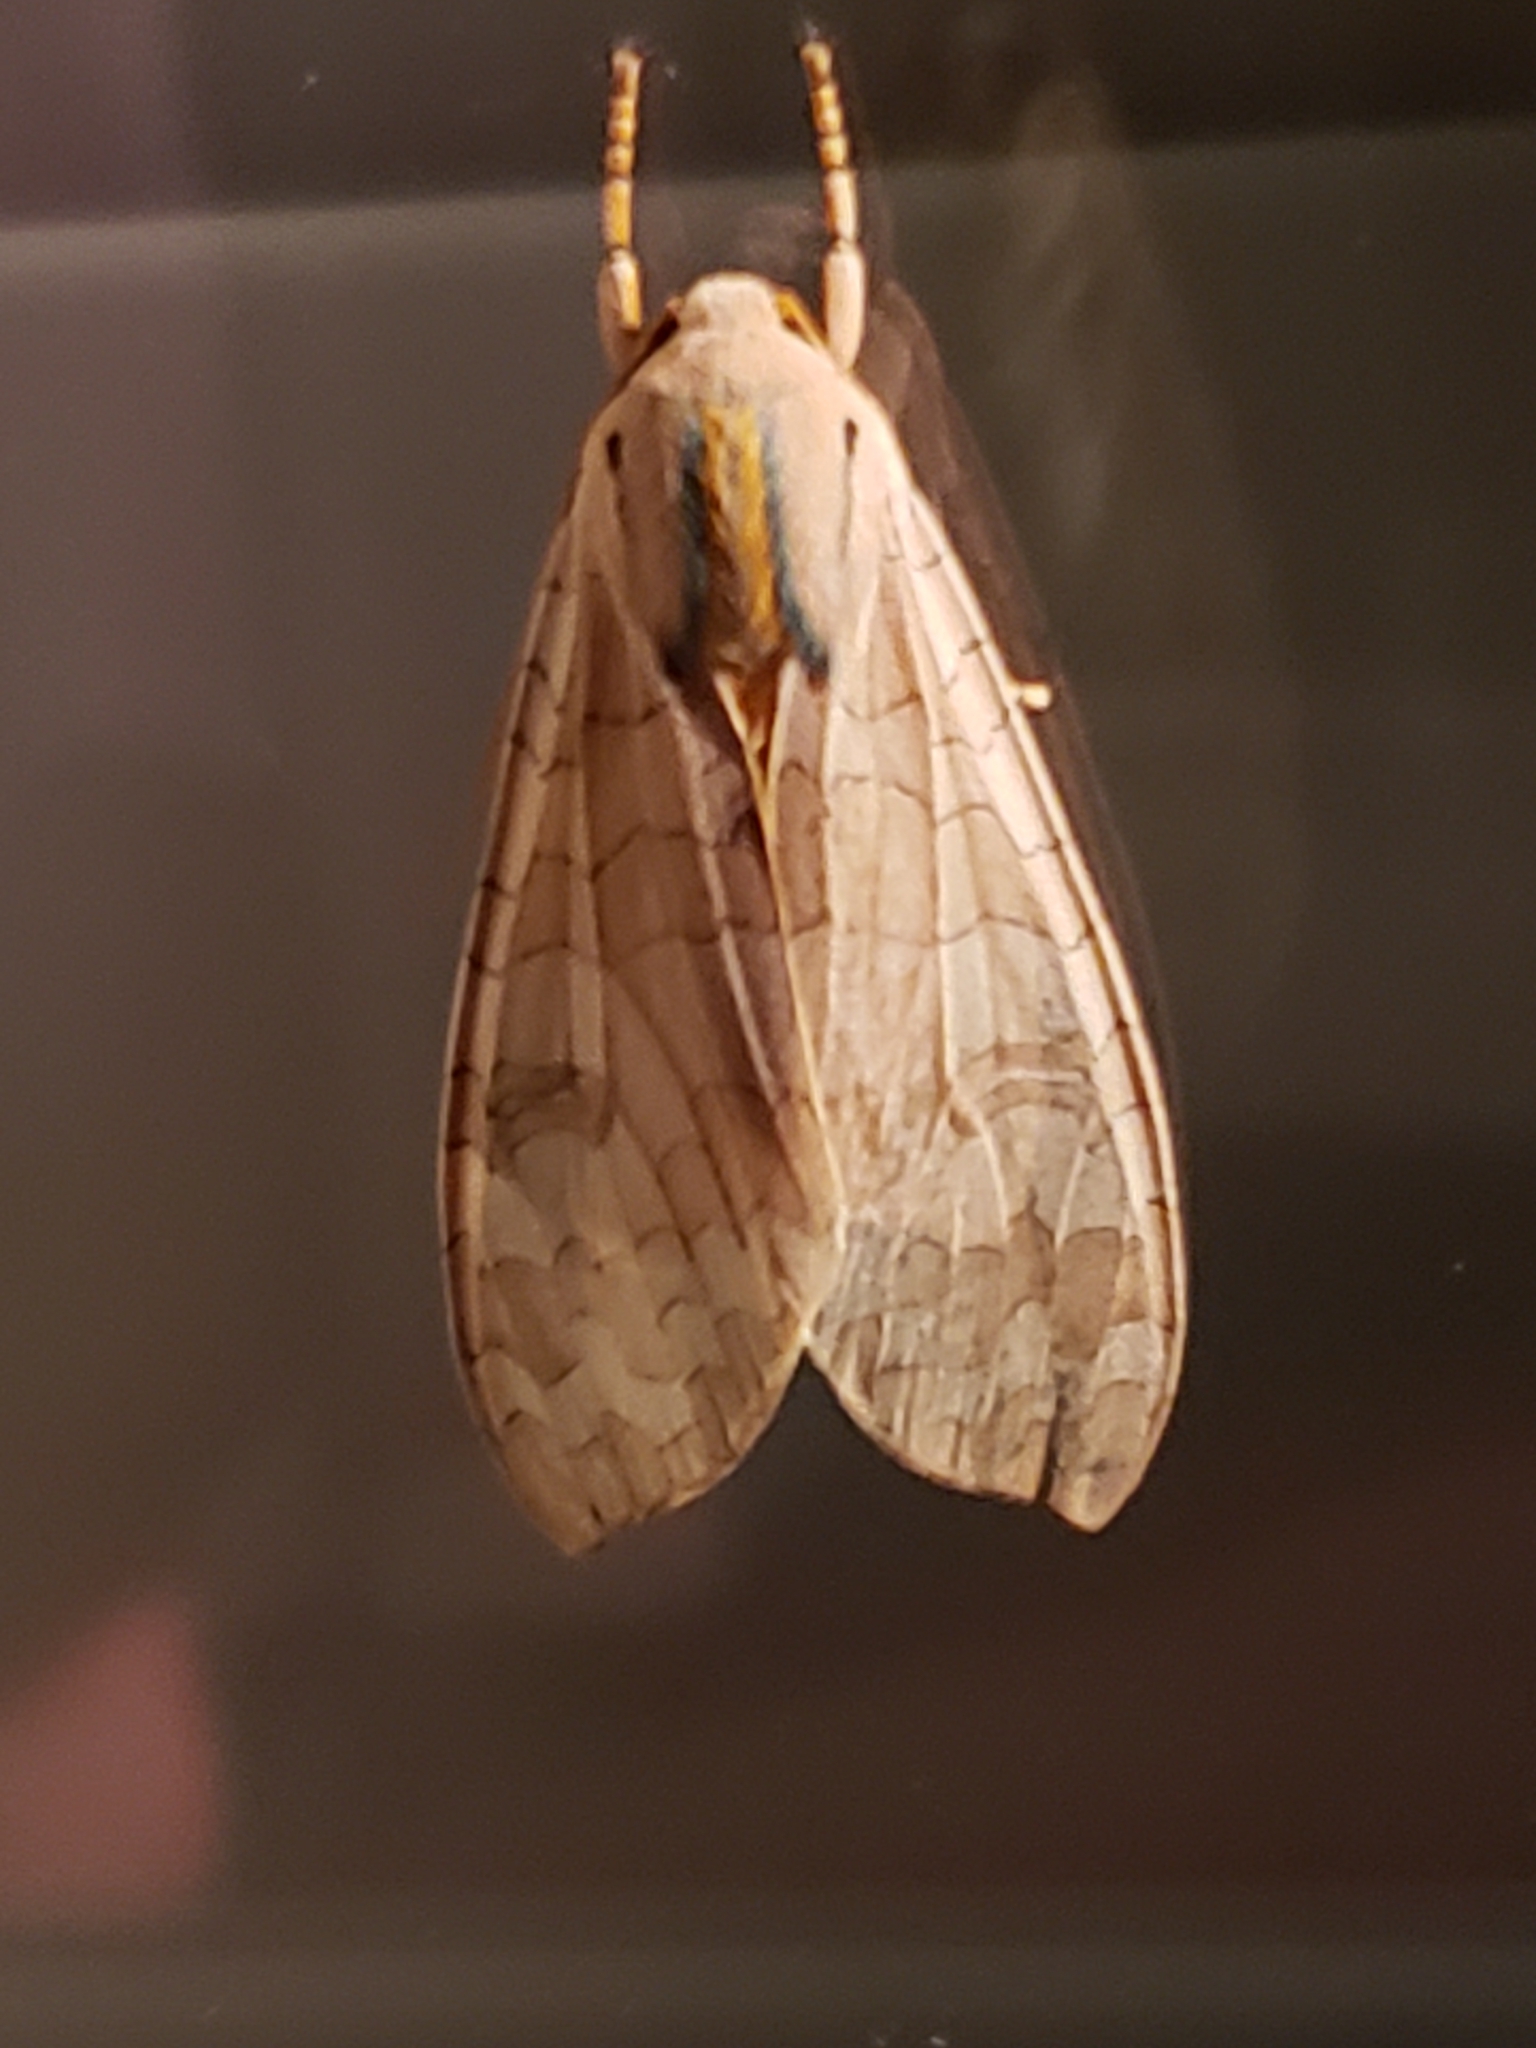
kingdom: Animalia
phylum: Arthropoda
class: Insecta
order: Lepidoptera
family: Erebidae
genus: Halysidota
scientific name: Halysidota
